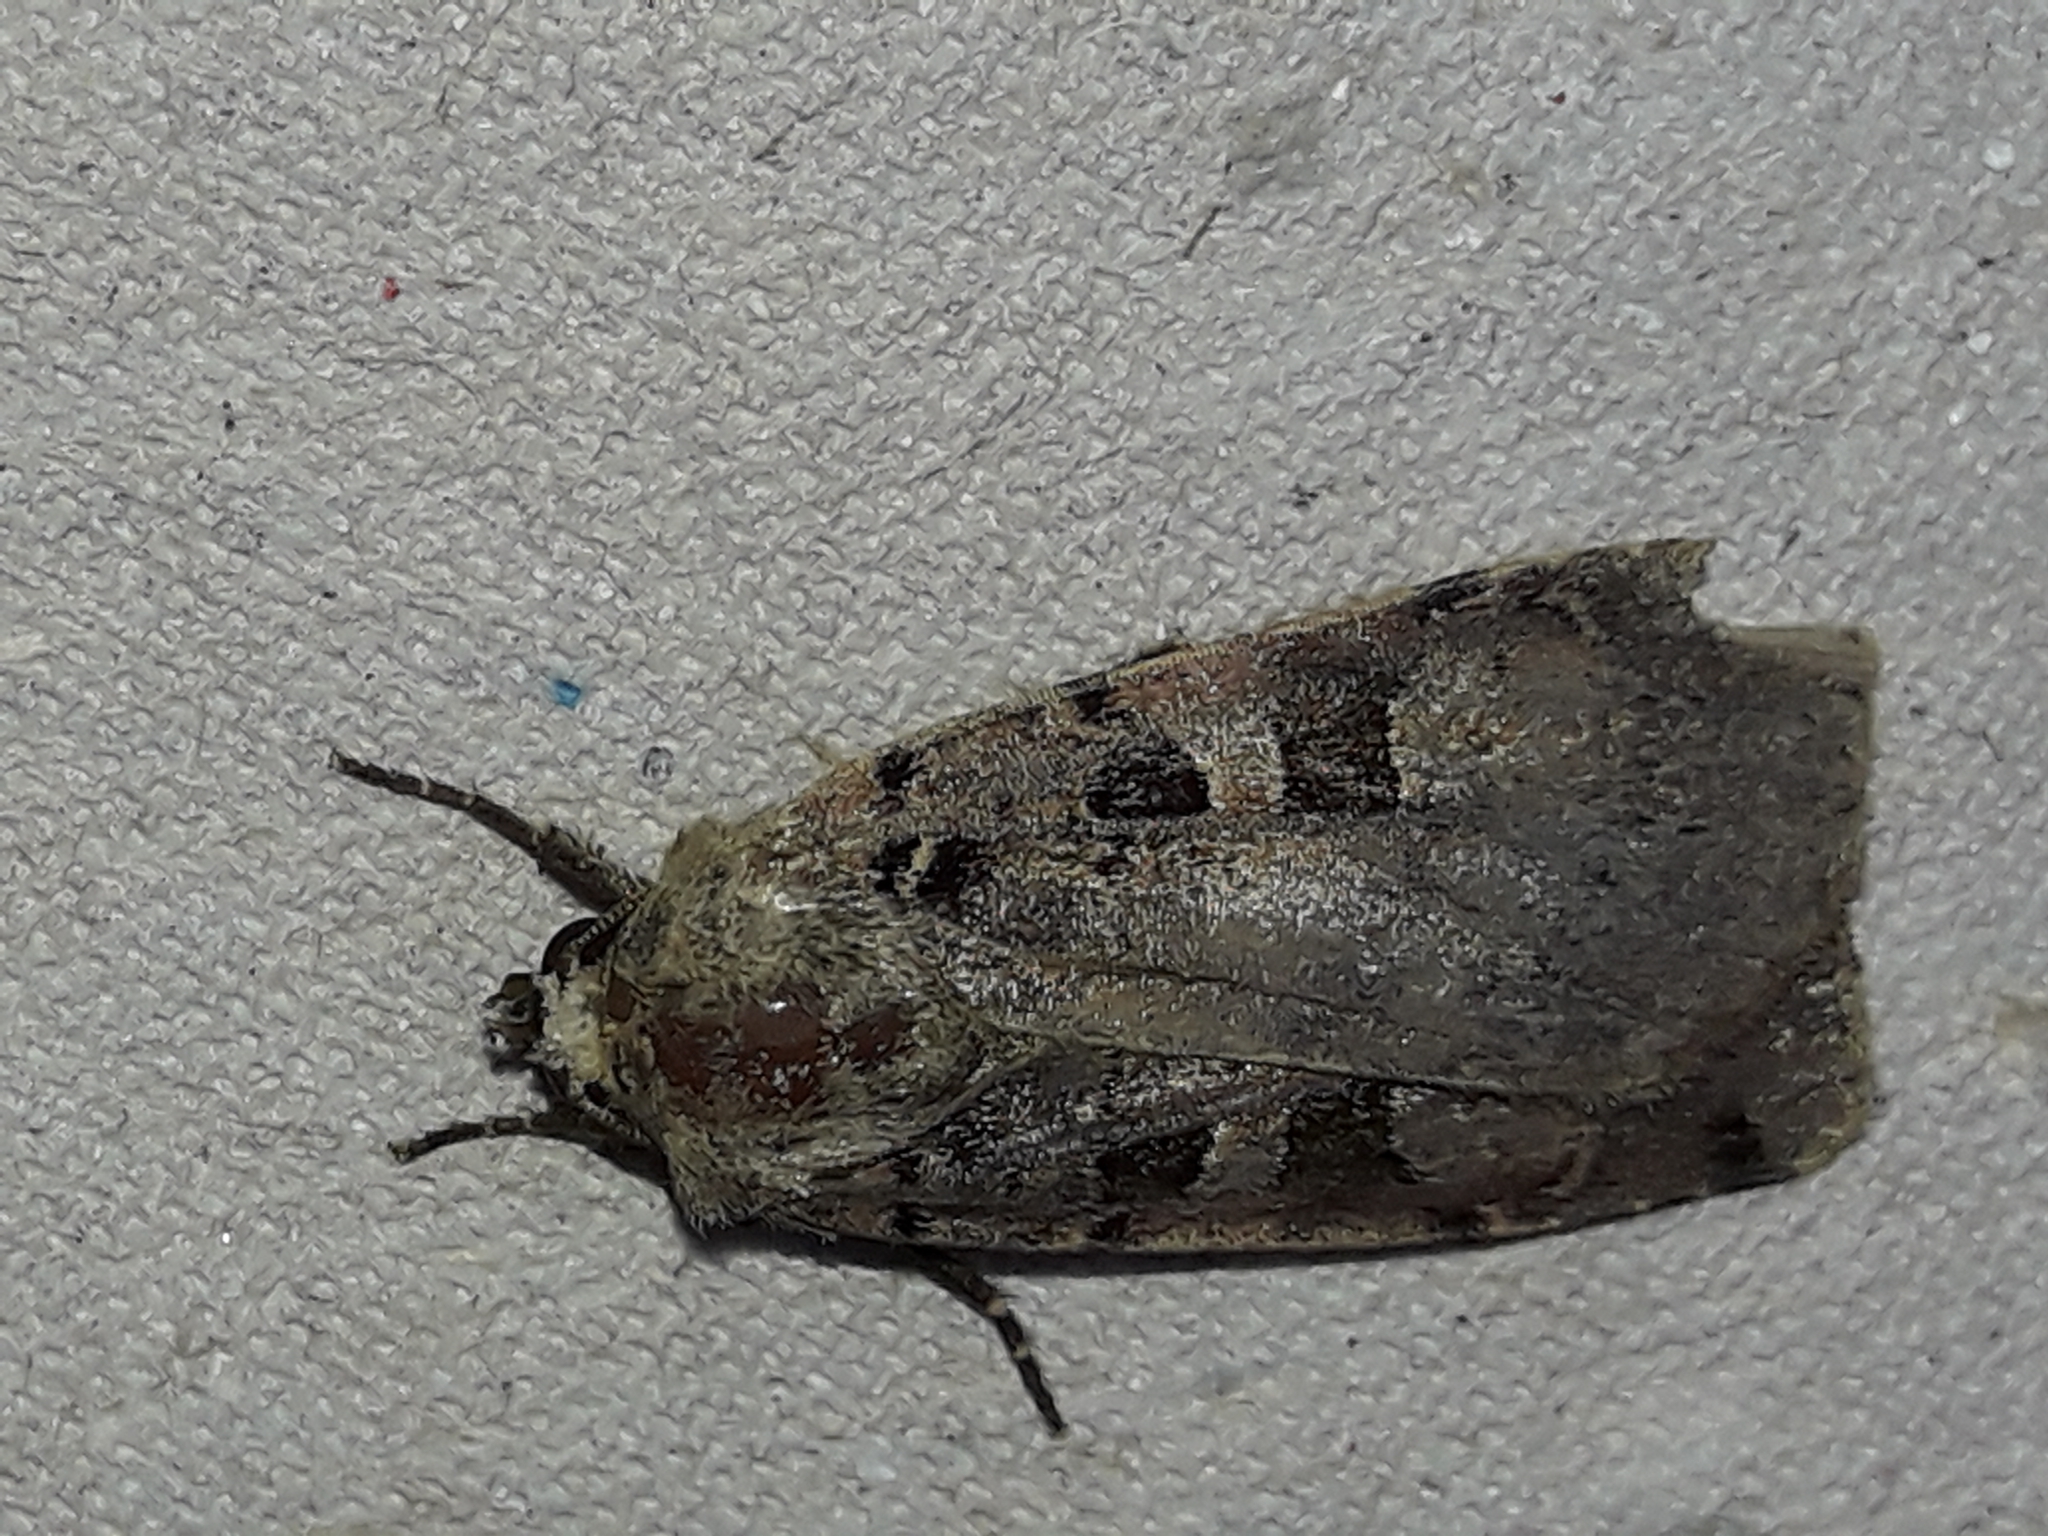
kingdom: Animalia
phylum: Arthropoda
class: Insecta
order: Lepidoptera
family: Noctuidae
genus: Xestia
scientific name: Xestia triangulum
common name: Double square-spot
